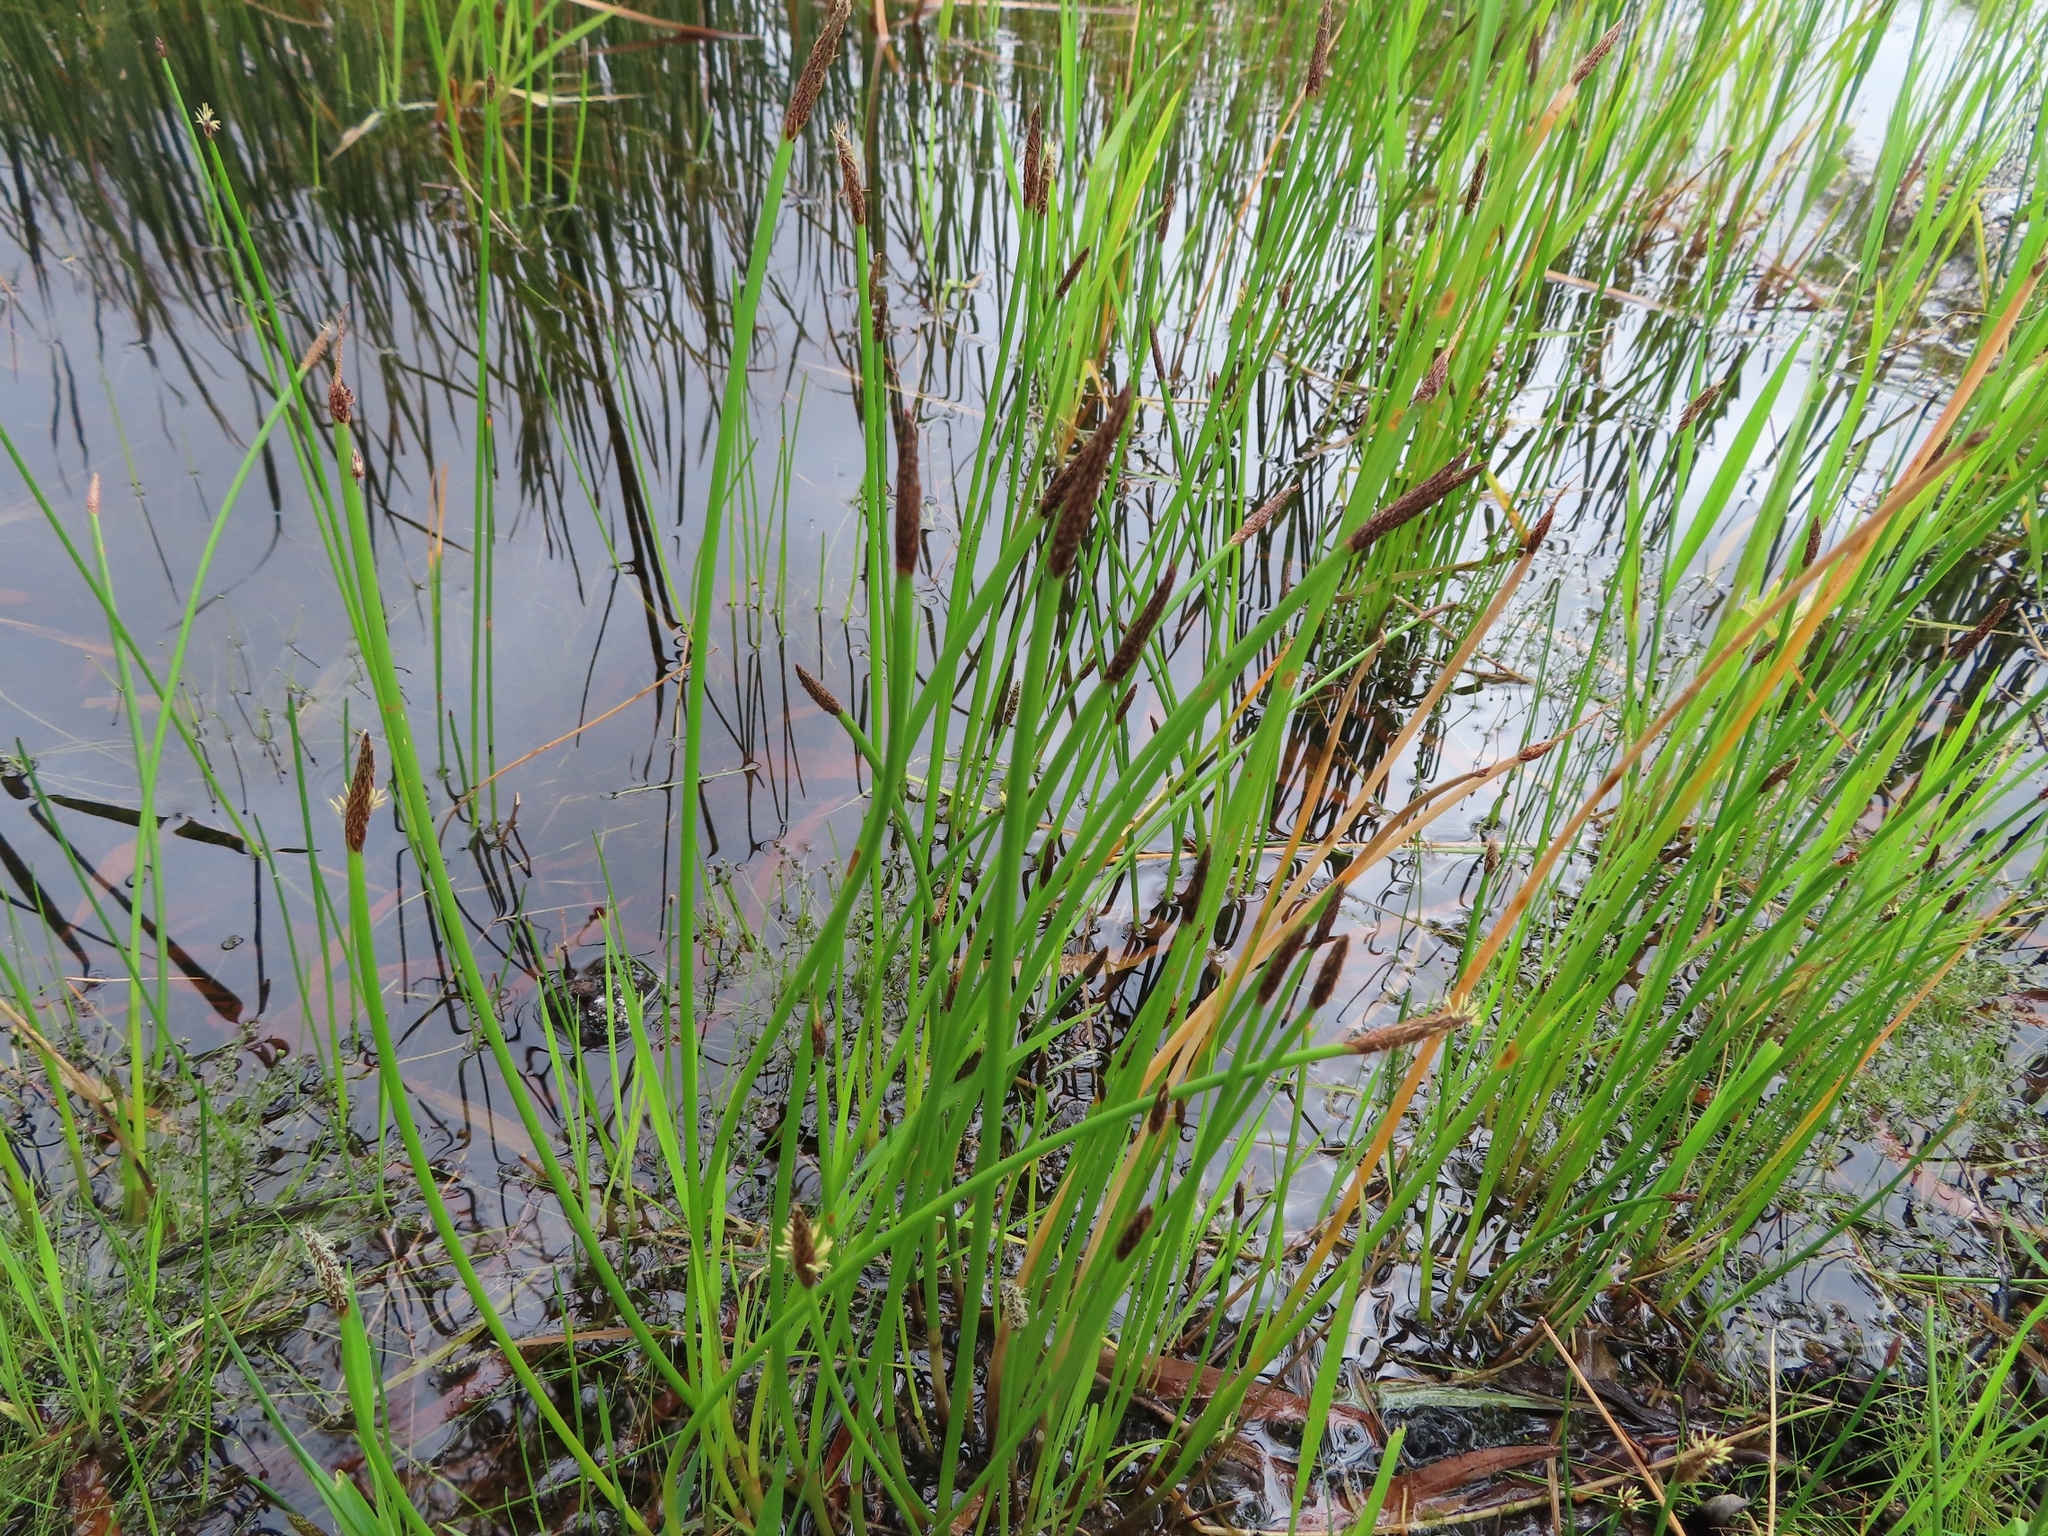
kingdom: Plantae
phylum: Tracheophyta
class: Liliopsida
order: Poales
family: Cyperaceae
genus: Eleocharis
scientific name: Eleocharis limosa
